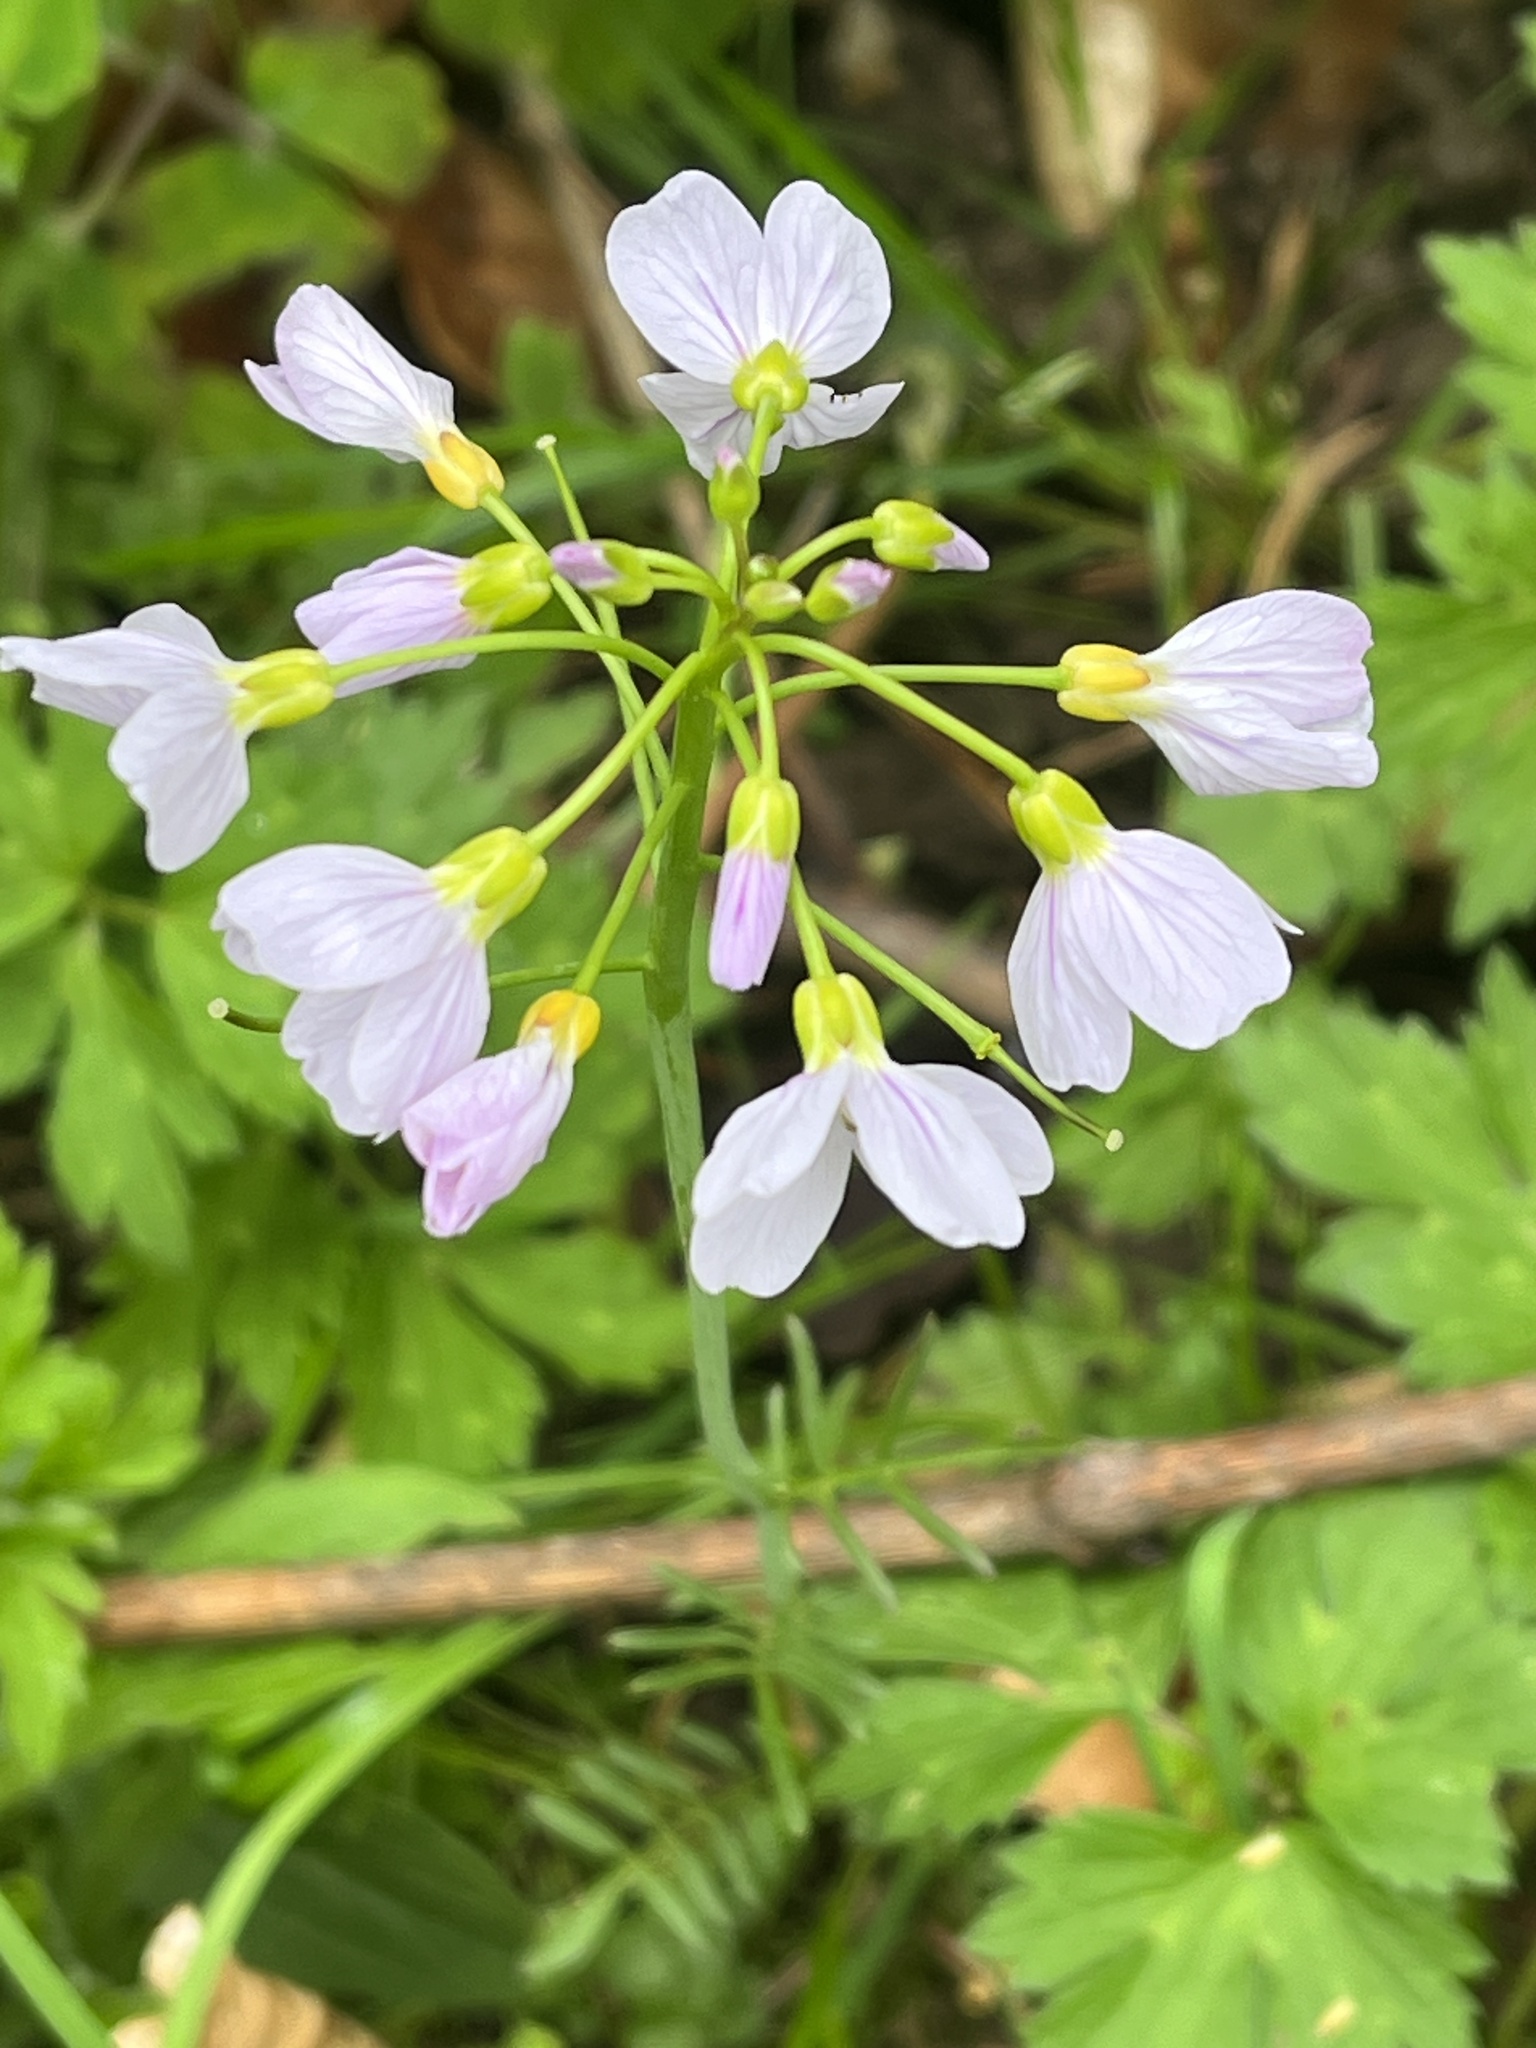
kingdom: Plantae
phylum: Tracheophyta
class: Magnoliopsida
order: Brassicales
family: Brassicaceae
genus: Cardamine
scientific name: Cardamine pratensis
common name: Cuckoo flower
